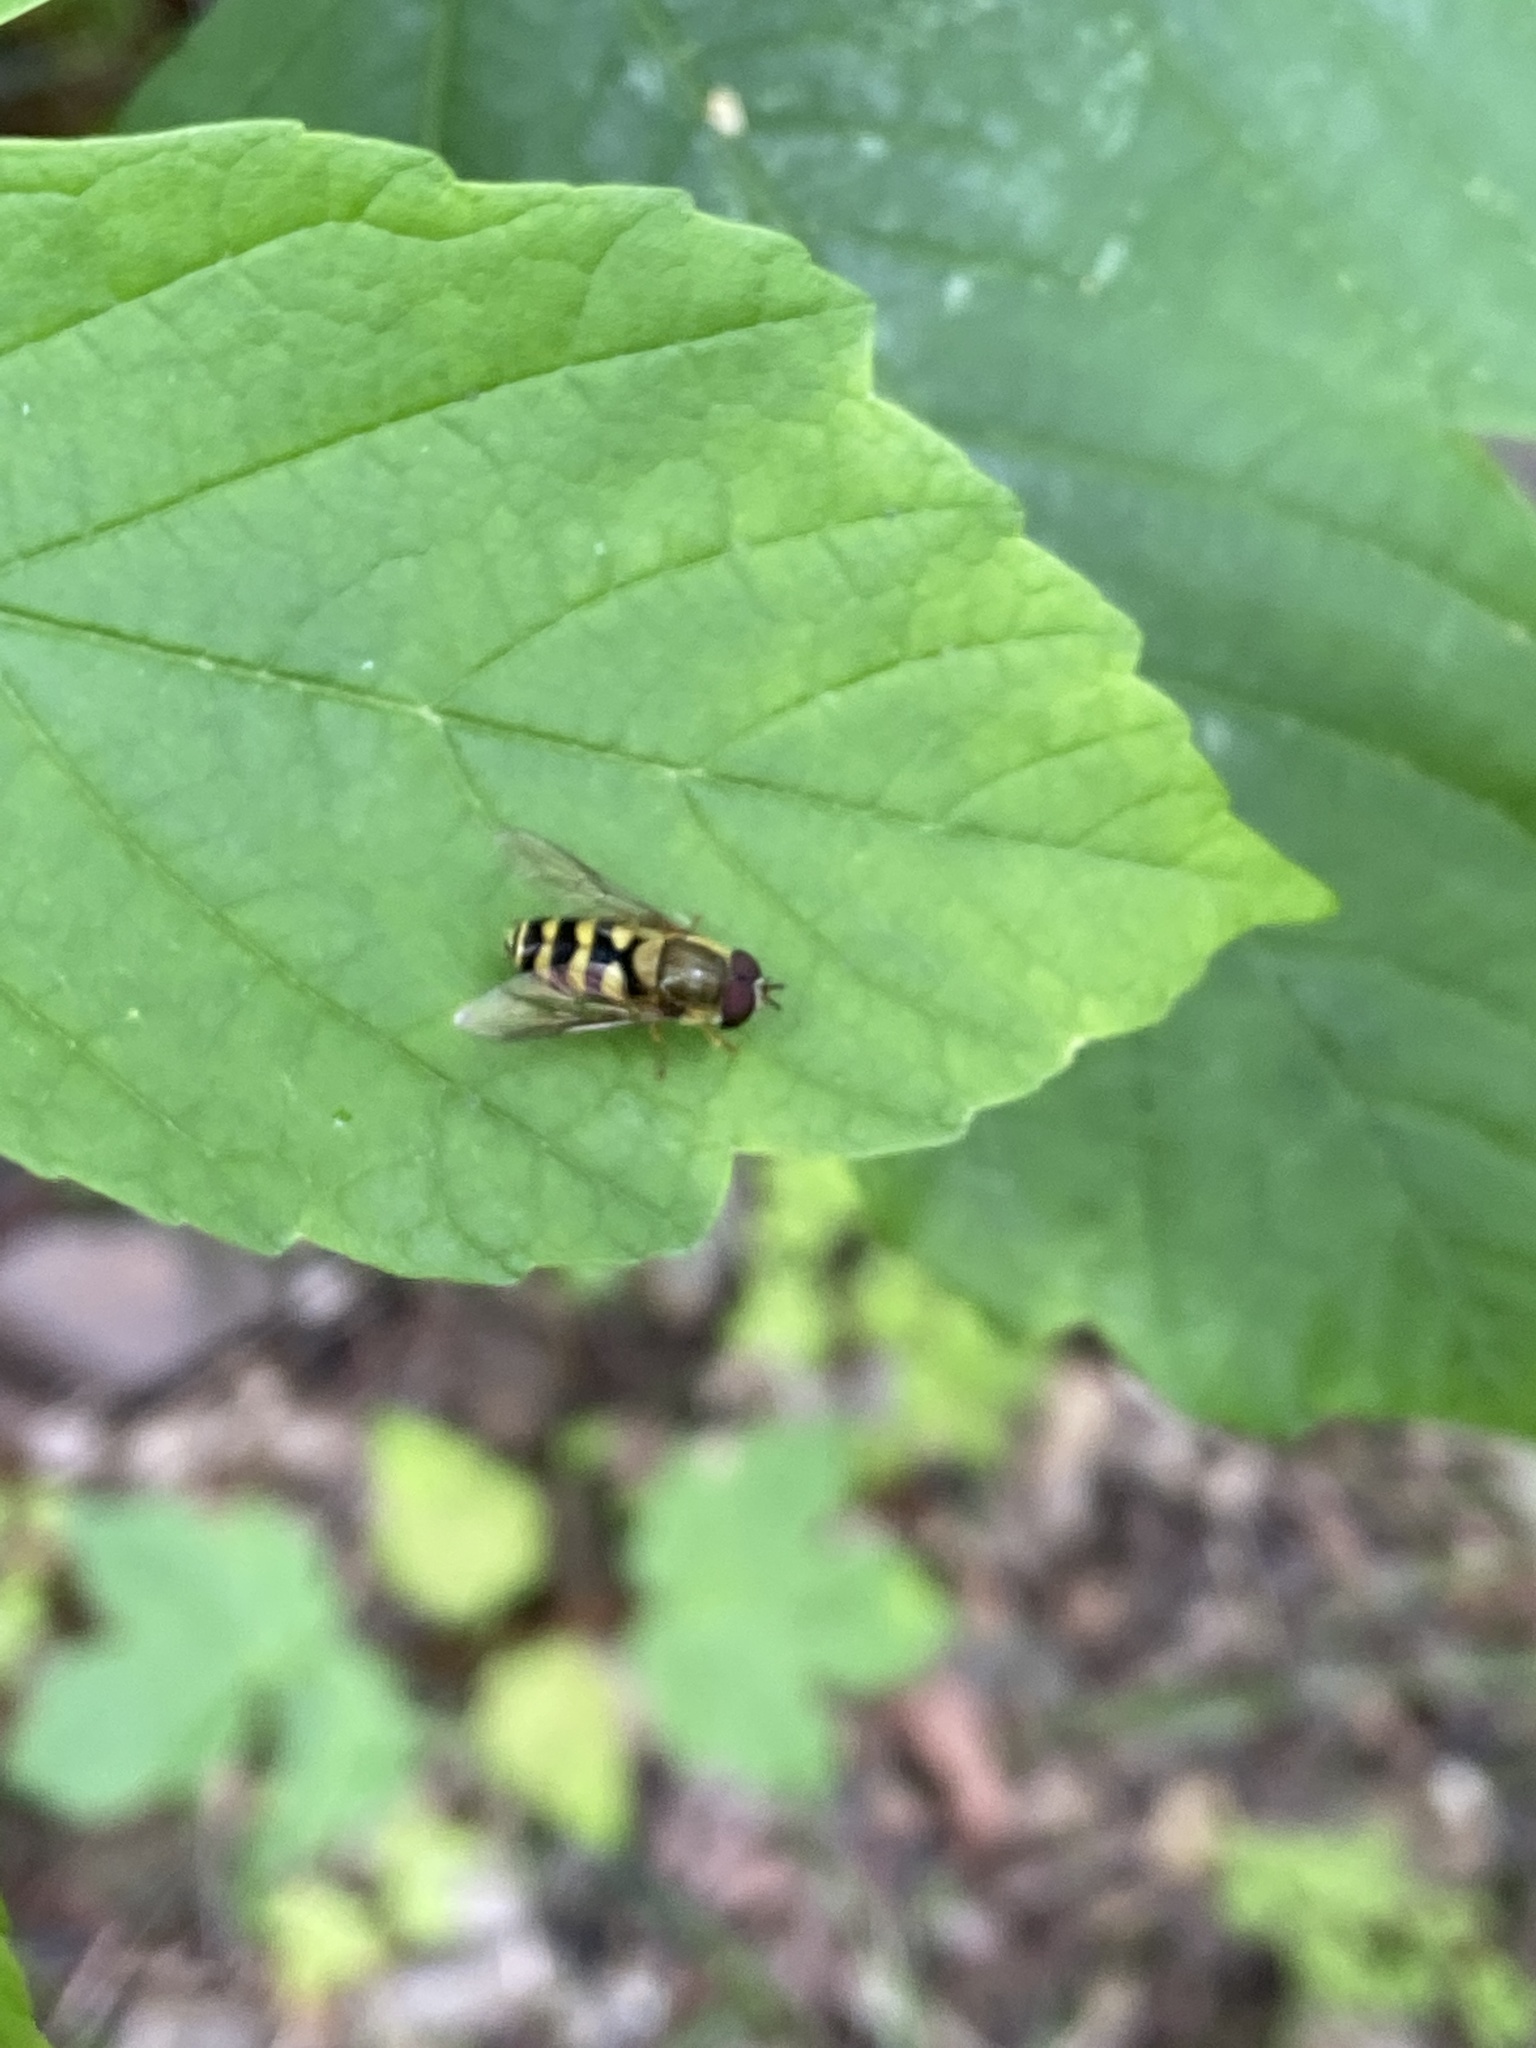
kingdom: Animalia
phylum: Arthropoda
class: Insecta
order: Diptera
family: Syrphidae
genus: Syrphus
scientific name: Syrphus
